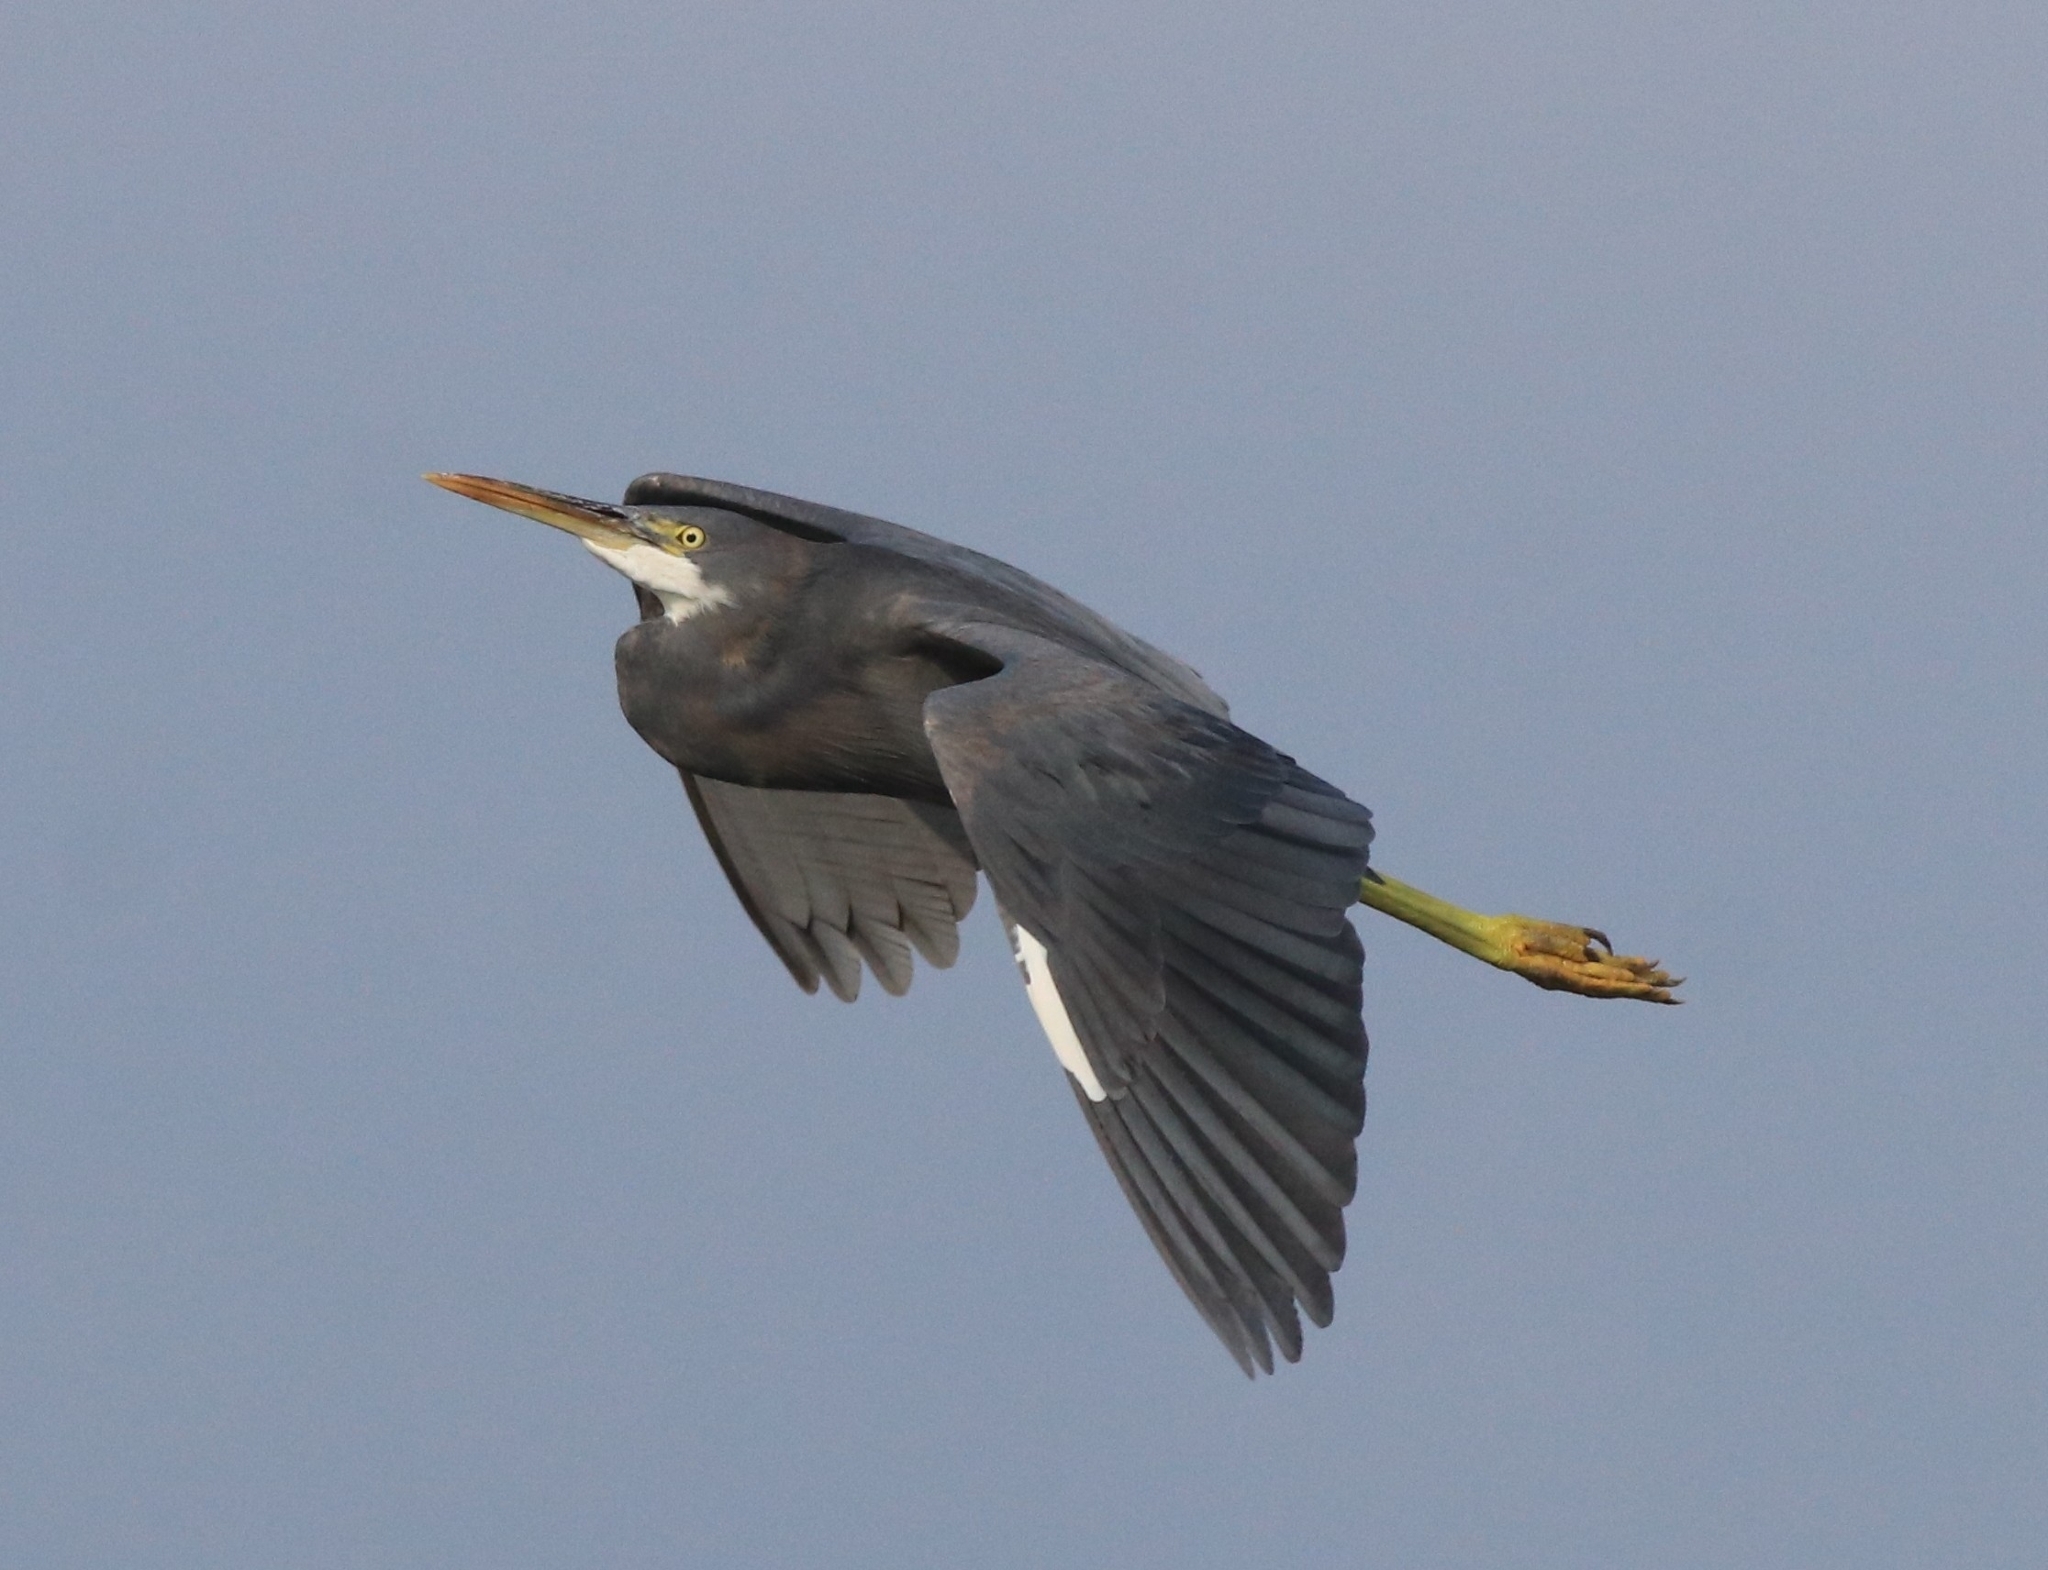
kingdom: Animalia
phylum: Chordata
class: Aves
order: Pelecaniformes
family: Ardeidae
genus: Egretta
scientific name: Egretta gularis
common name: Western reef-heron
